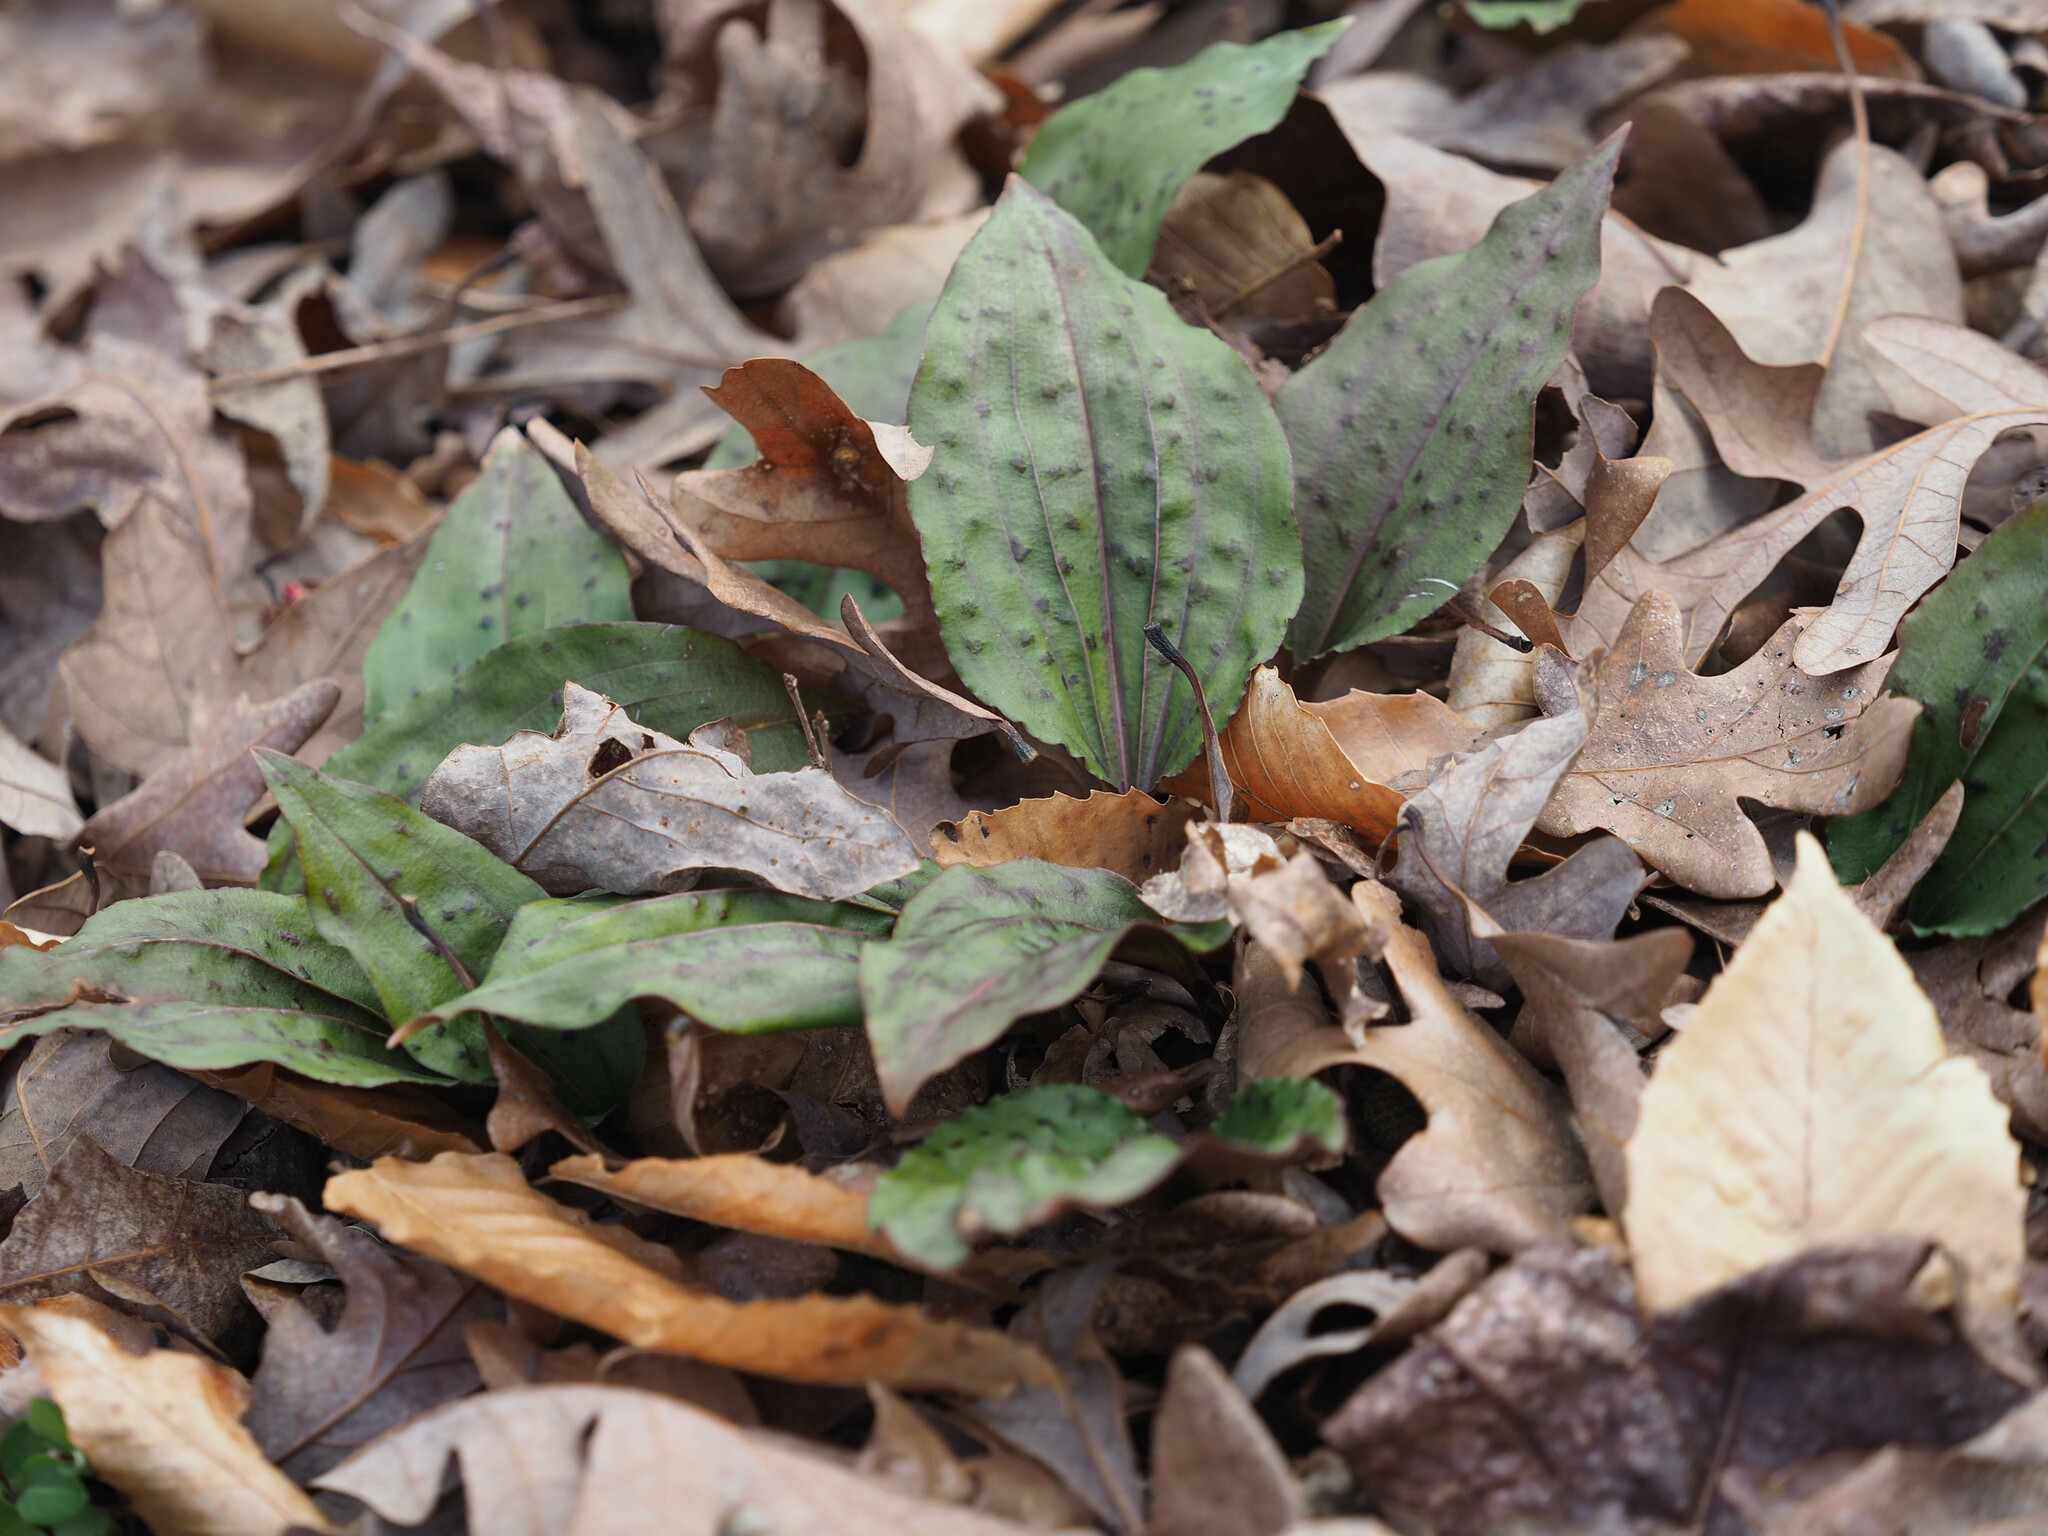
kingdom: Plantae
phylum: Tracheophyta
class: Liliopsida
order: Asparagales
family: Orchidaceae
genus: Tipularia
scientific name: Tipularia discolor
